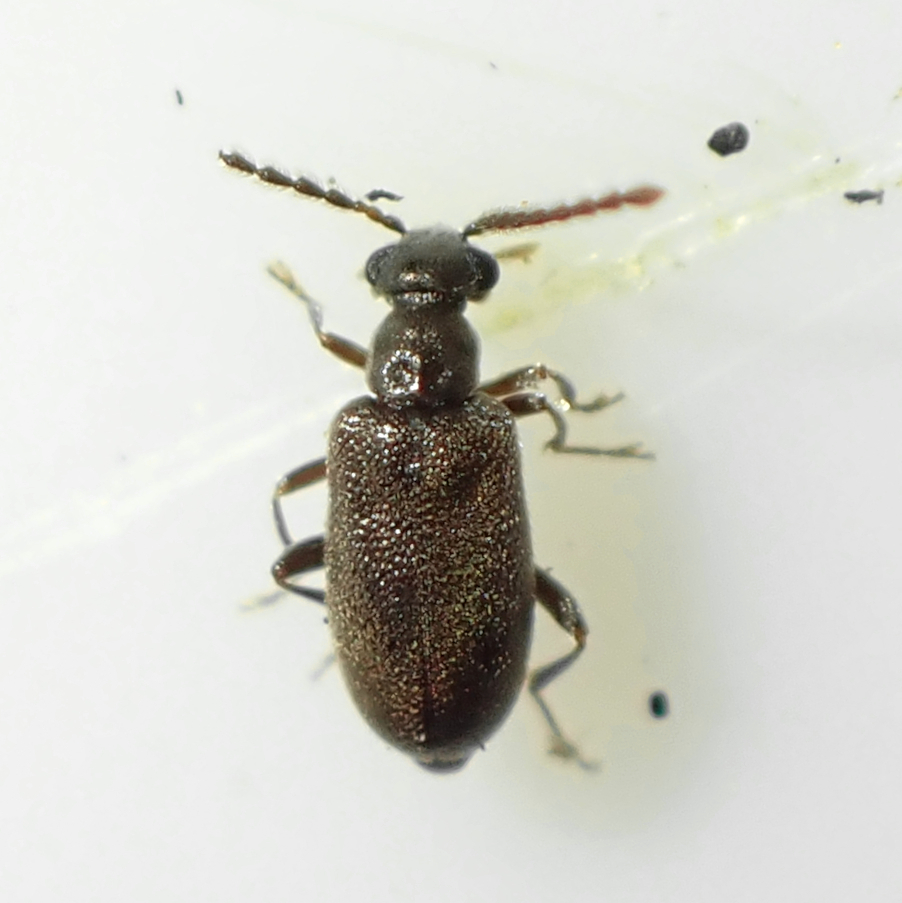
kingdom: Animalia
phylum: Arthropoda
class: Insecta
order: Coleoptera
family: Aderidae
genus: Zenascus
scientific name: Zenascus obscurus
